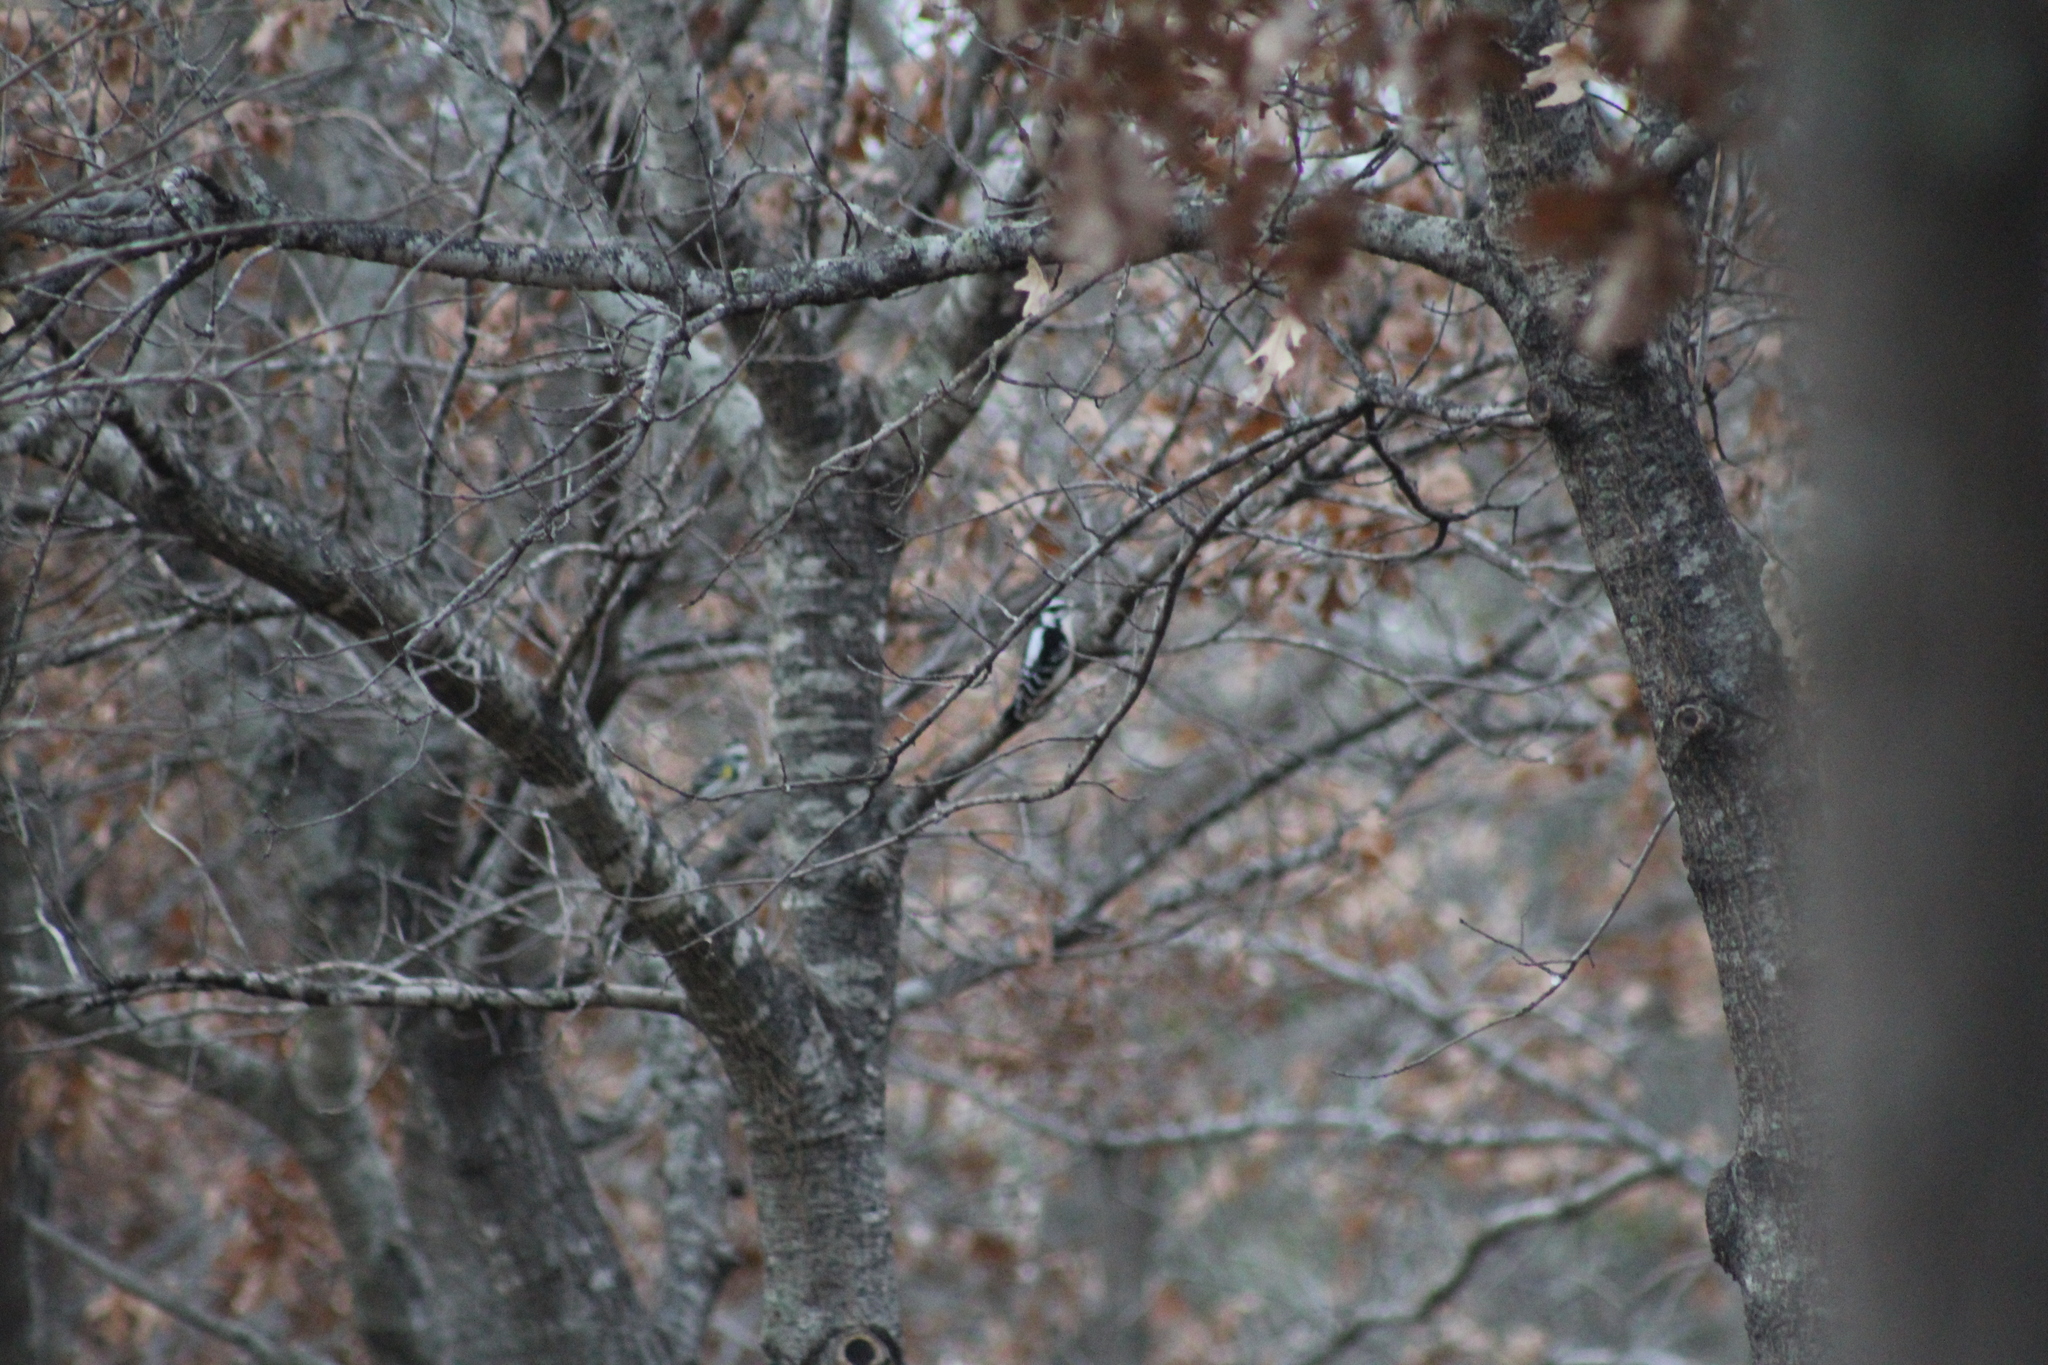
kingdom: Animalia
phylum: Chordata
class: Aves
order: Piciformes
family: Picidae
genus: Dryobates
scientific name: Dryobates pubescens
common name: Downy woodpecker
